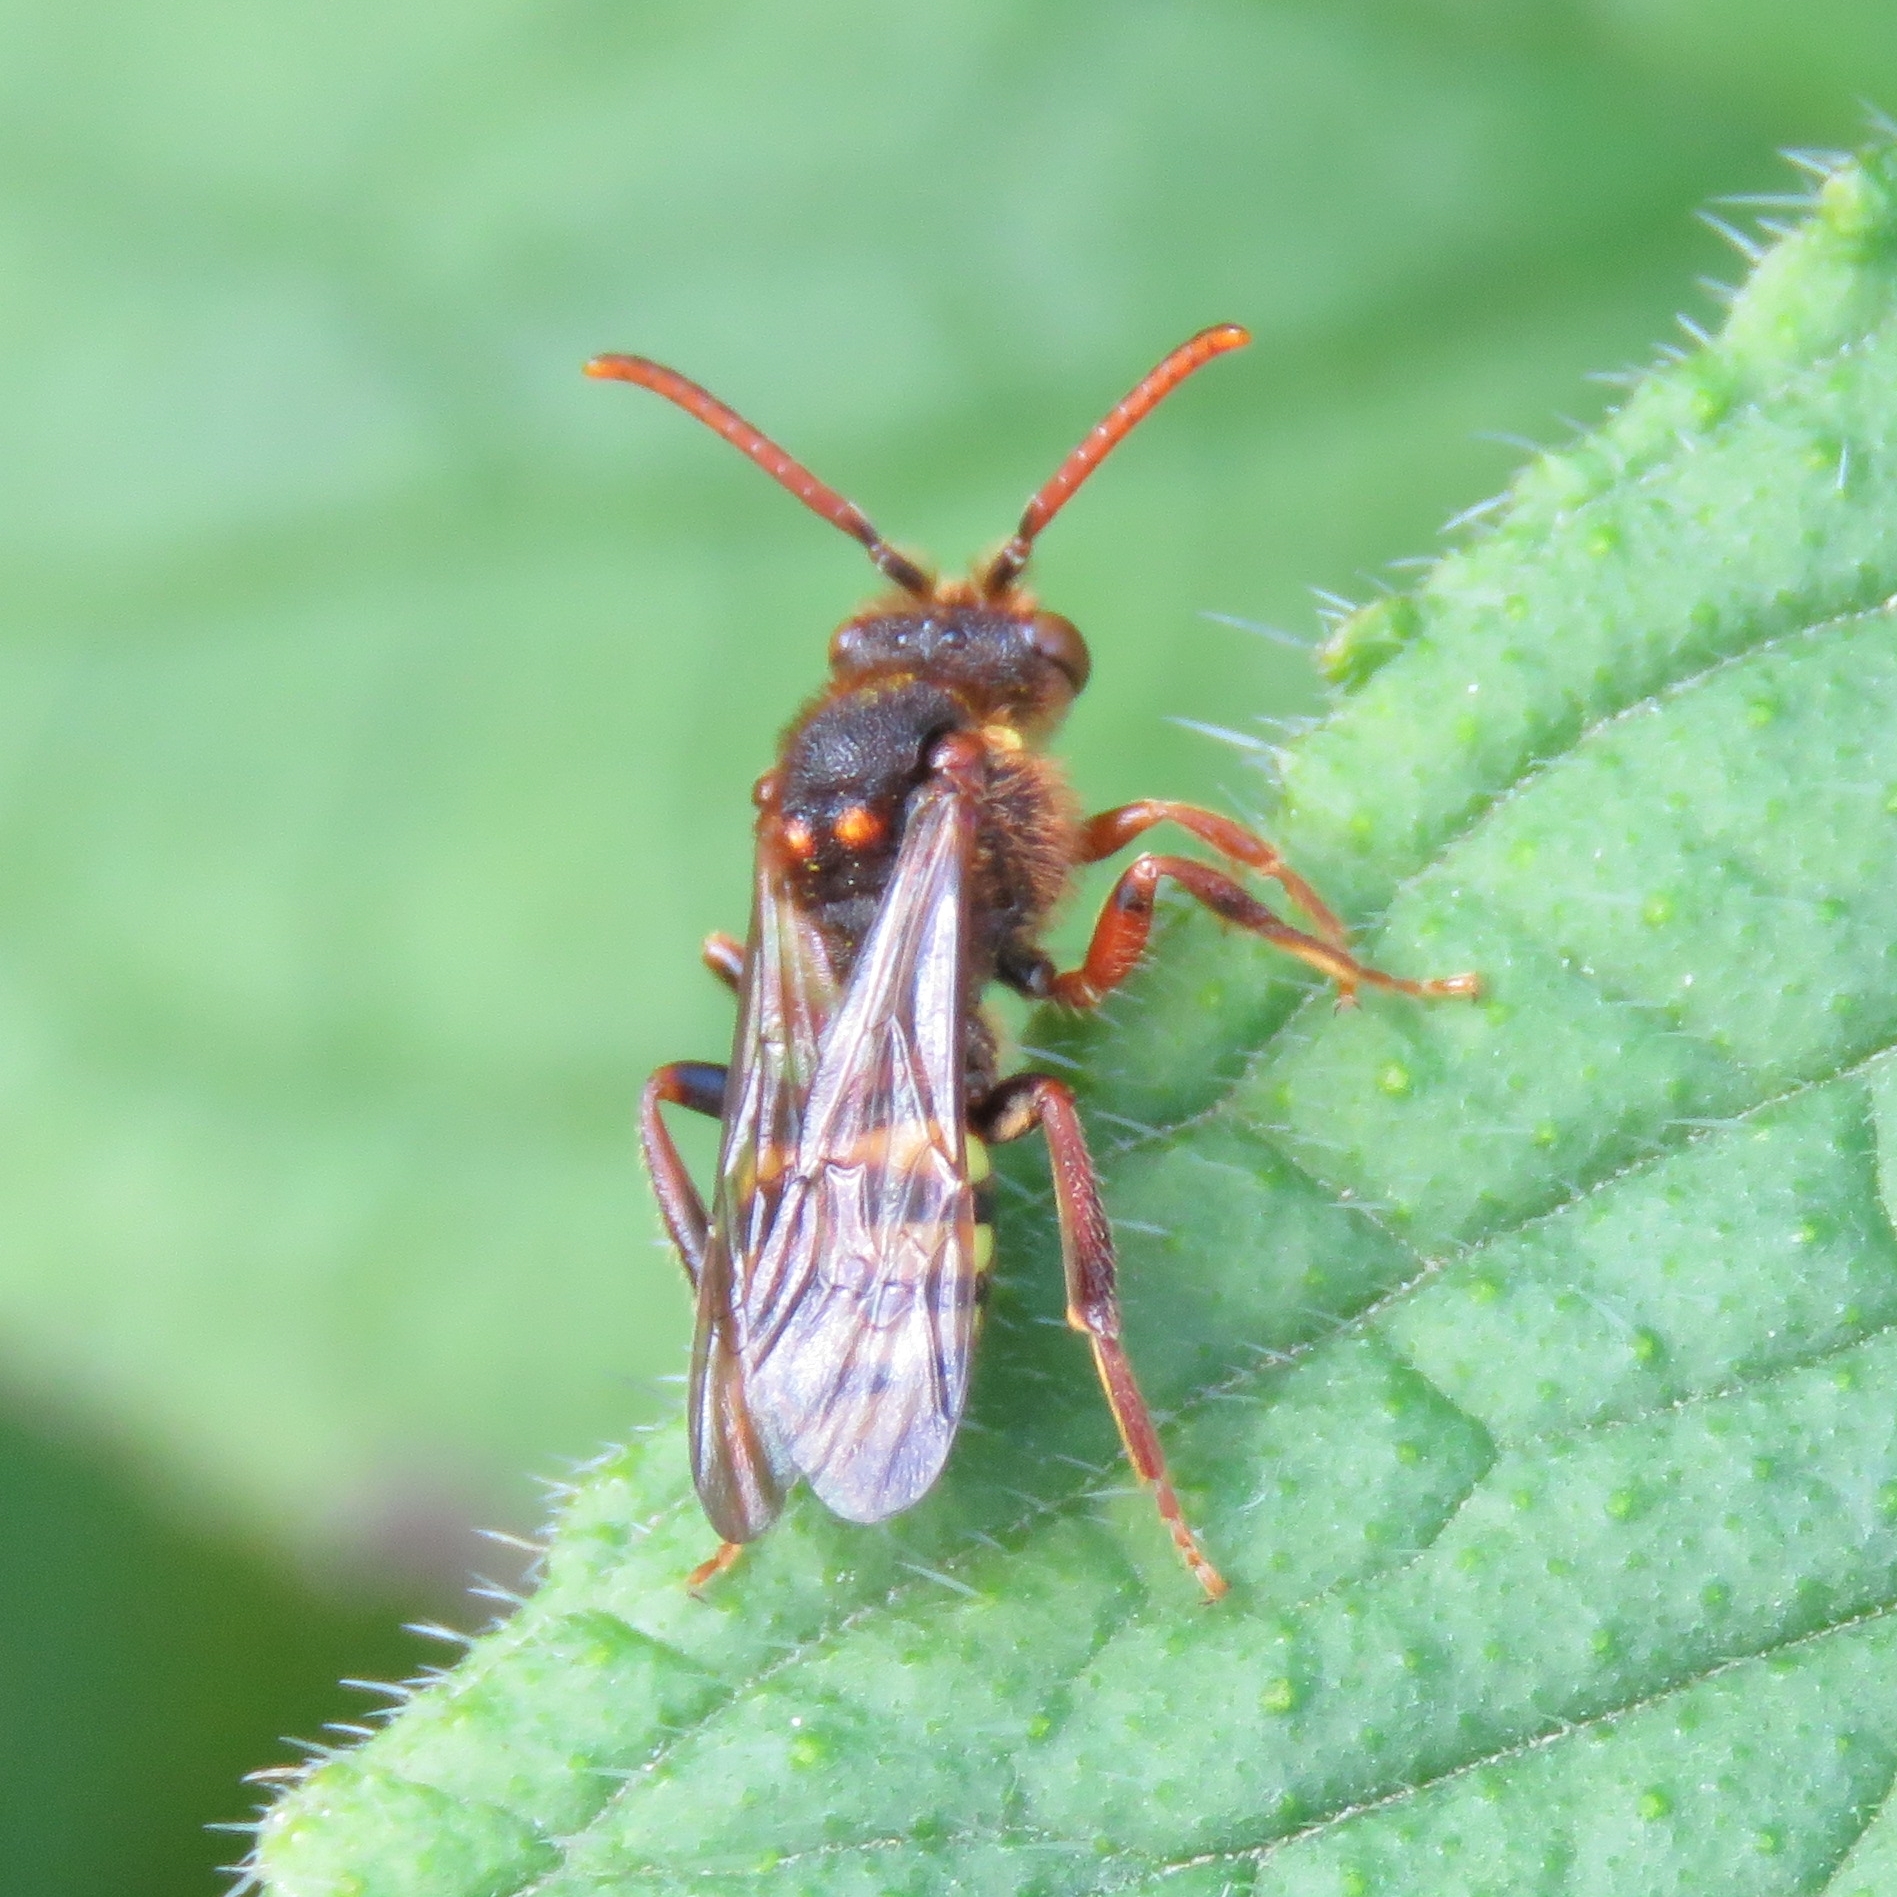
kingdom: Animalia
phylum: Arthropoda
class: Insecta
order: Hymenoptera
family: Apidae
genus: Nomada
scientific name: Nomada lathburiana
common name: Lathbury's nomad bee
